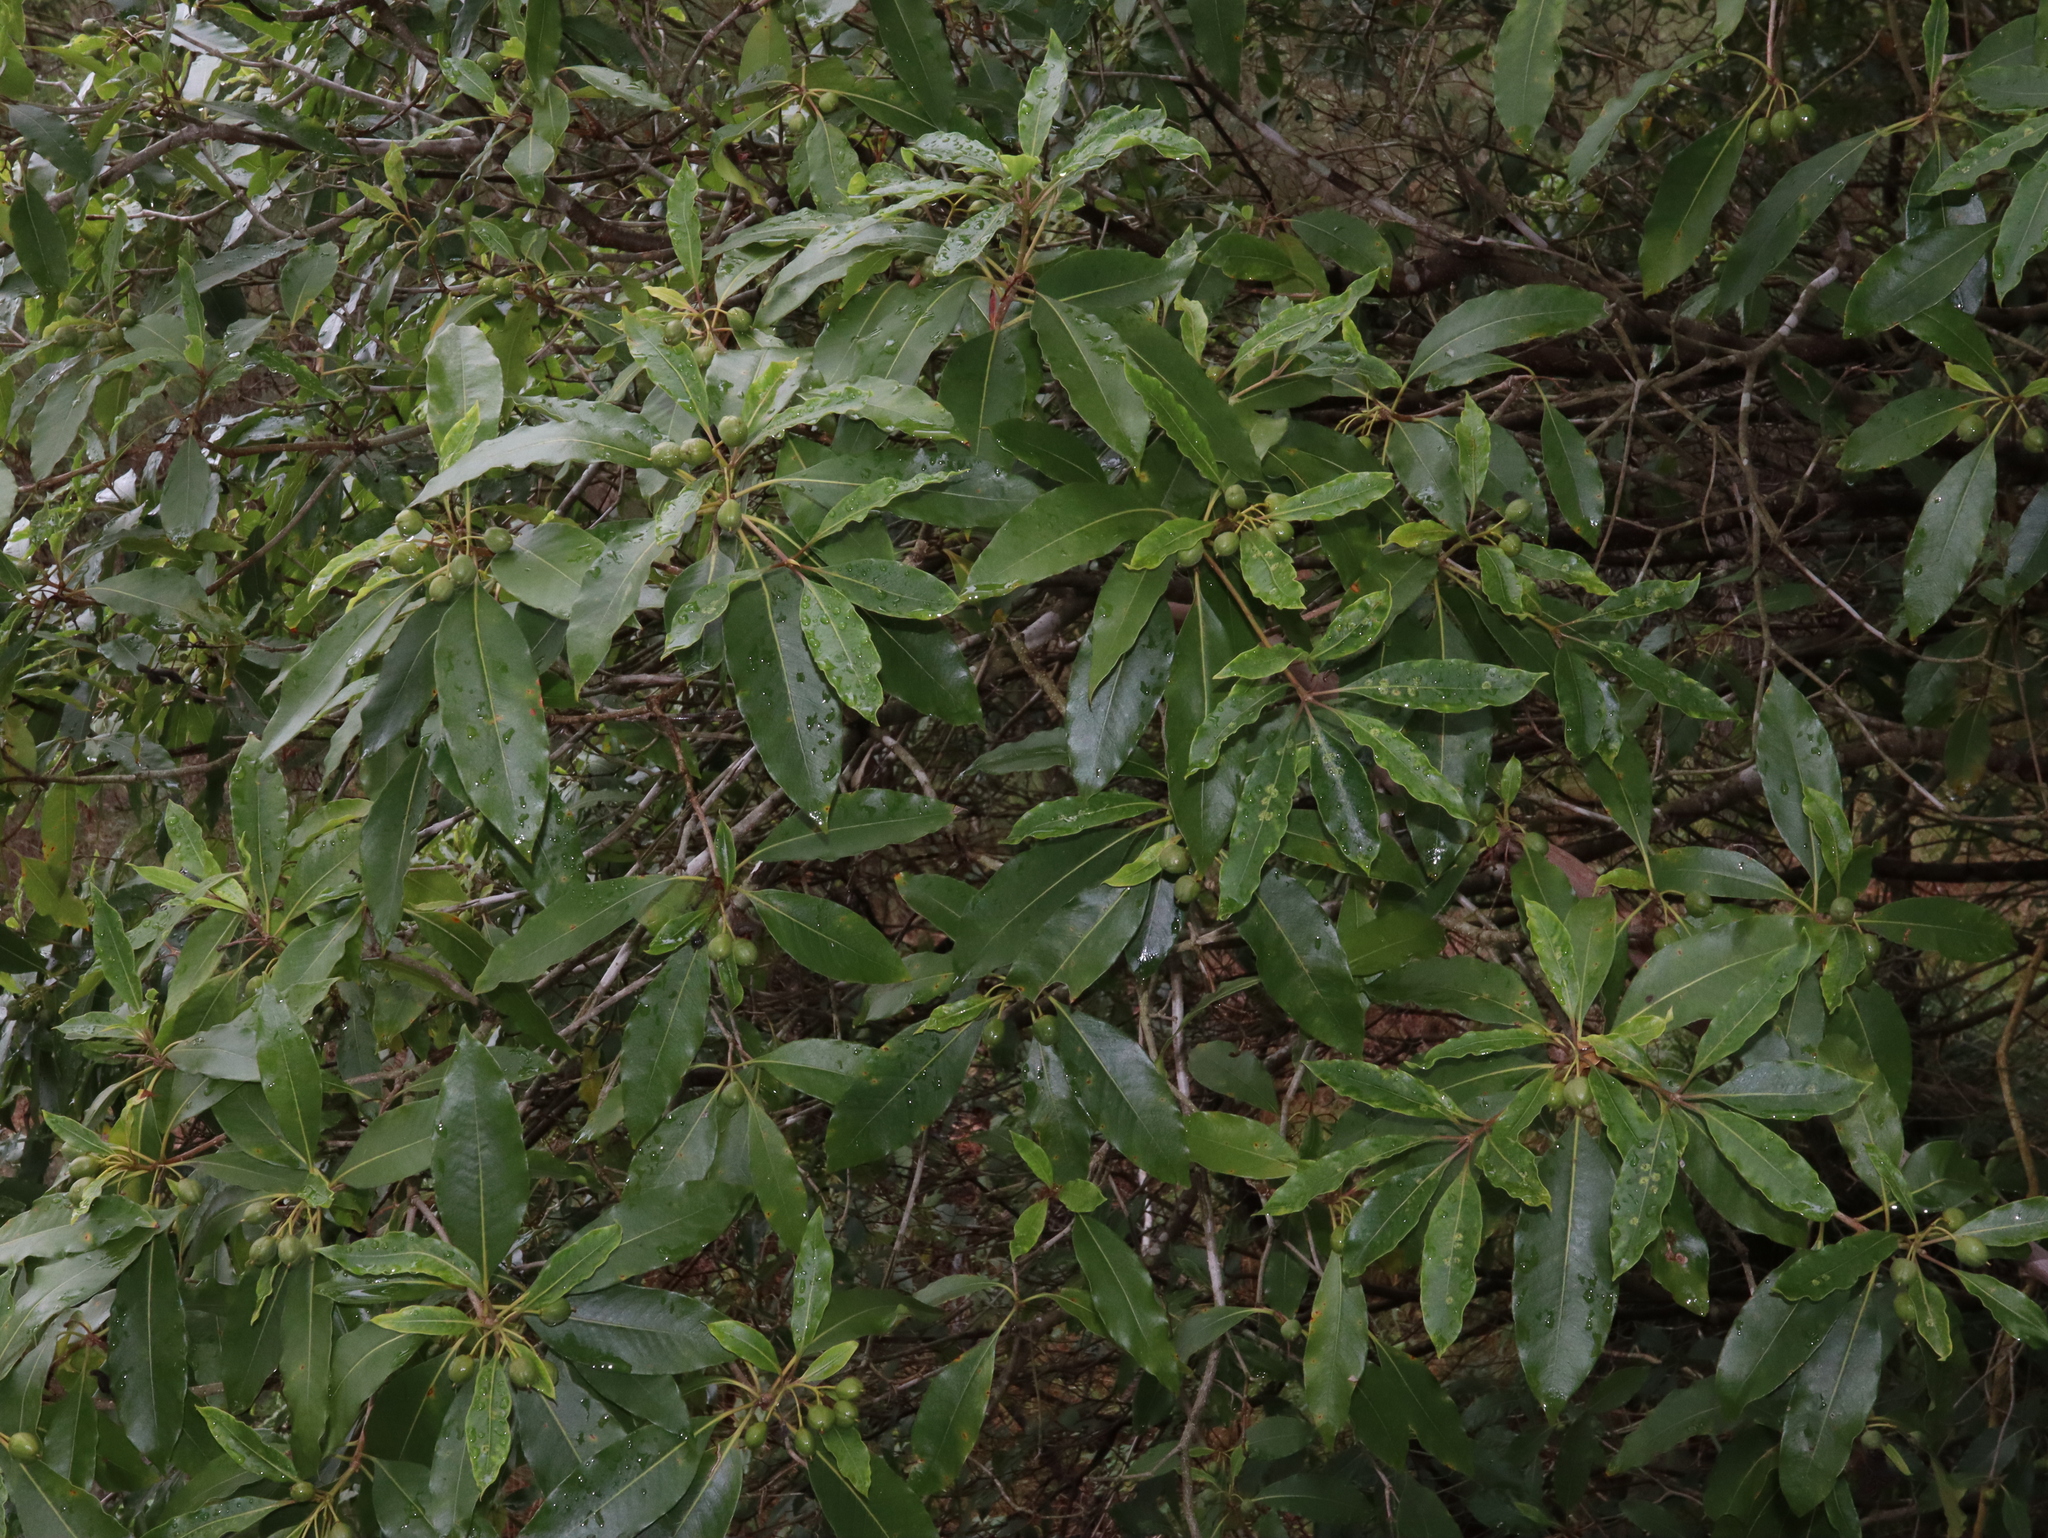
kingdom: Plantae
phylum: Tracheophyta
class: Magnoliopsida
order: Apiales
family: Pittosporaceae
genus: Pittosporum
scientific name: Pittosporum undulatum
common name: Australian cheesewood
